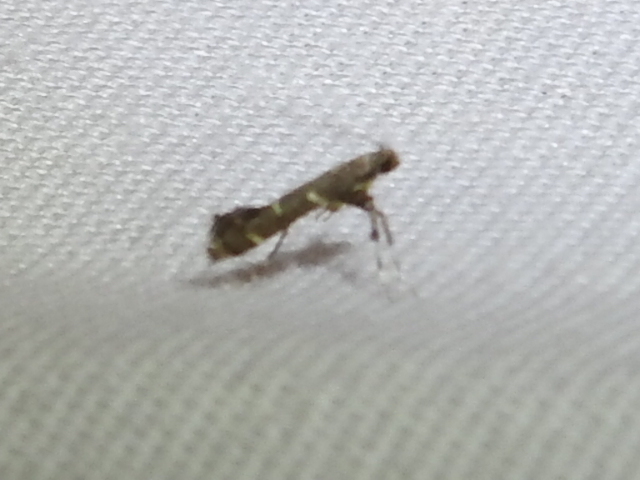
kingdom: Animalia
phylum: Arthropoda
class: Insecta
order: Lepidoptera
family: Gracillariidae
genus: Caloptilia
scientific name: Caloptilia triadicae
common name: Tallow leaf roller
